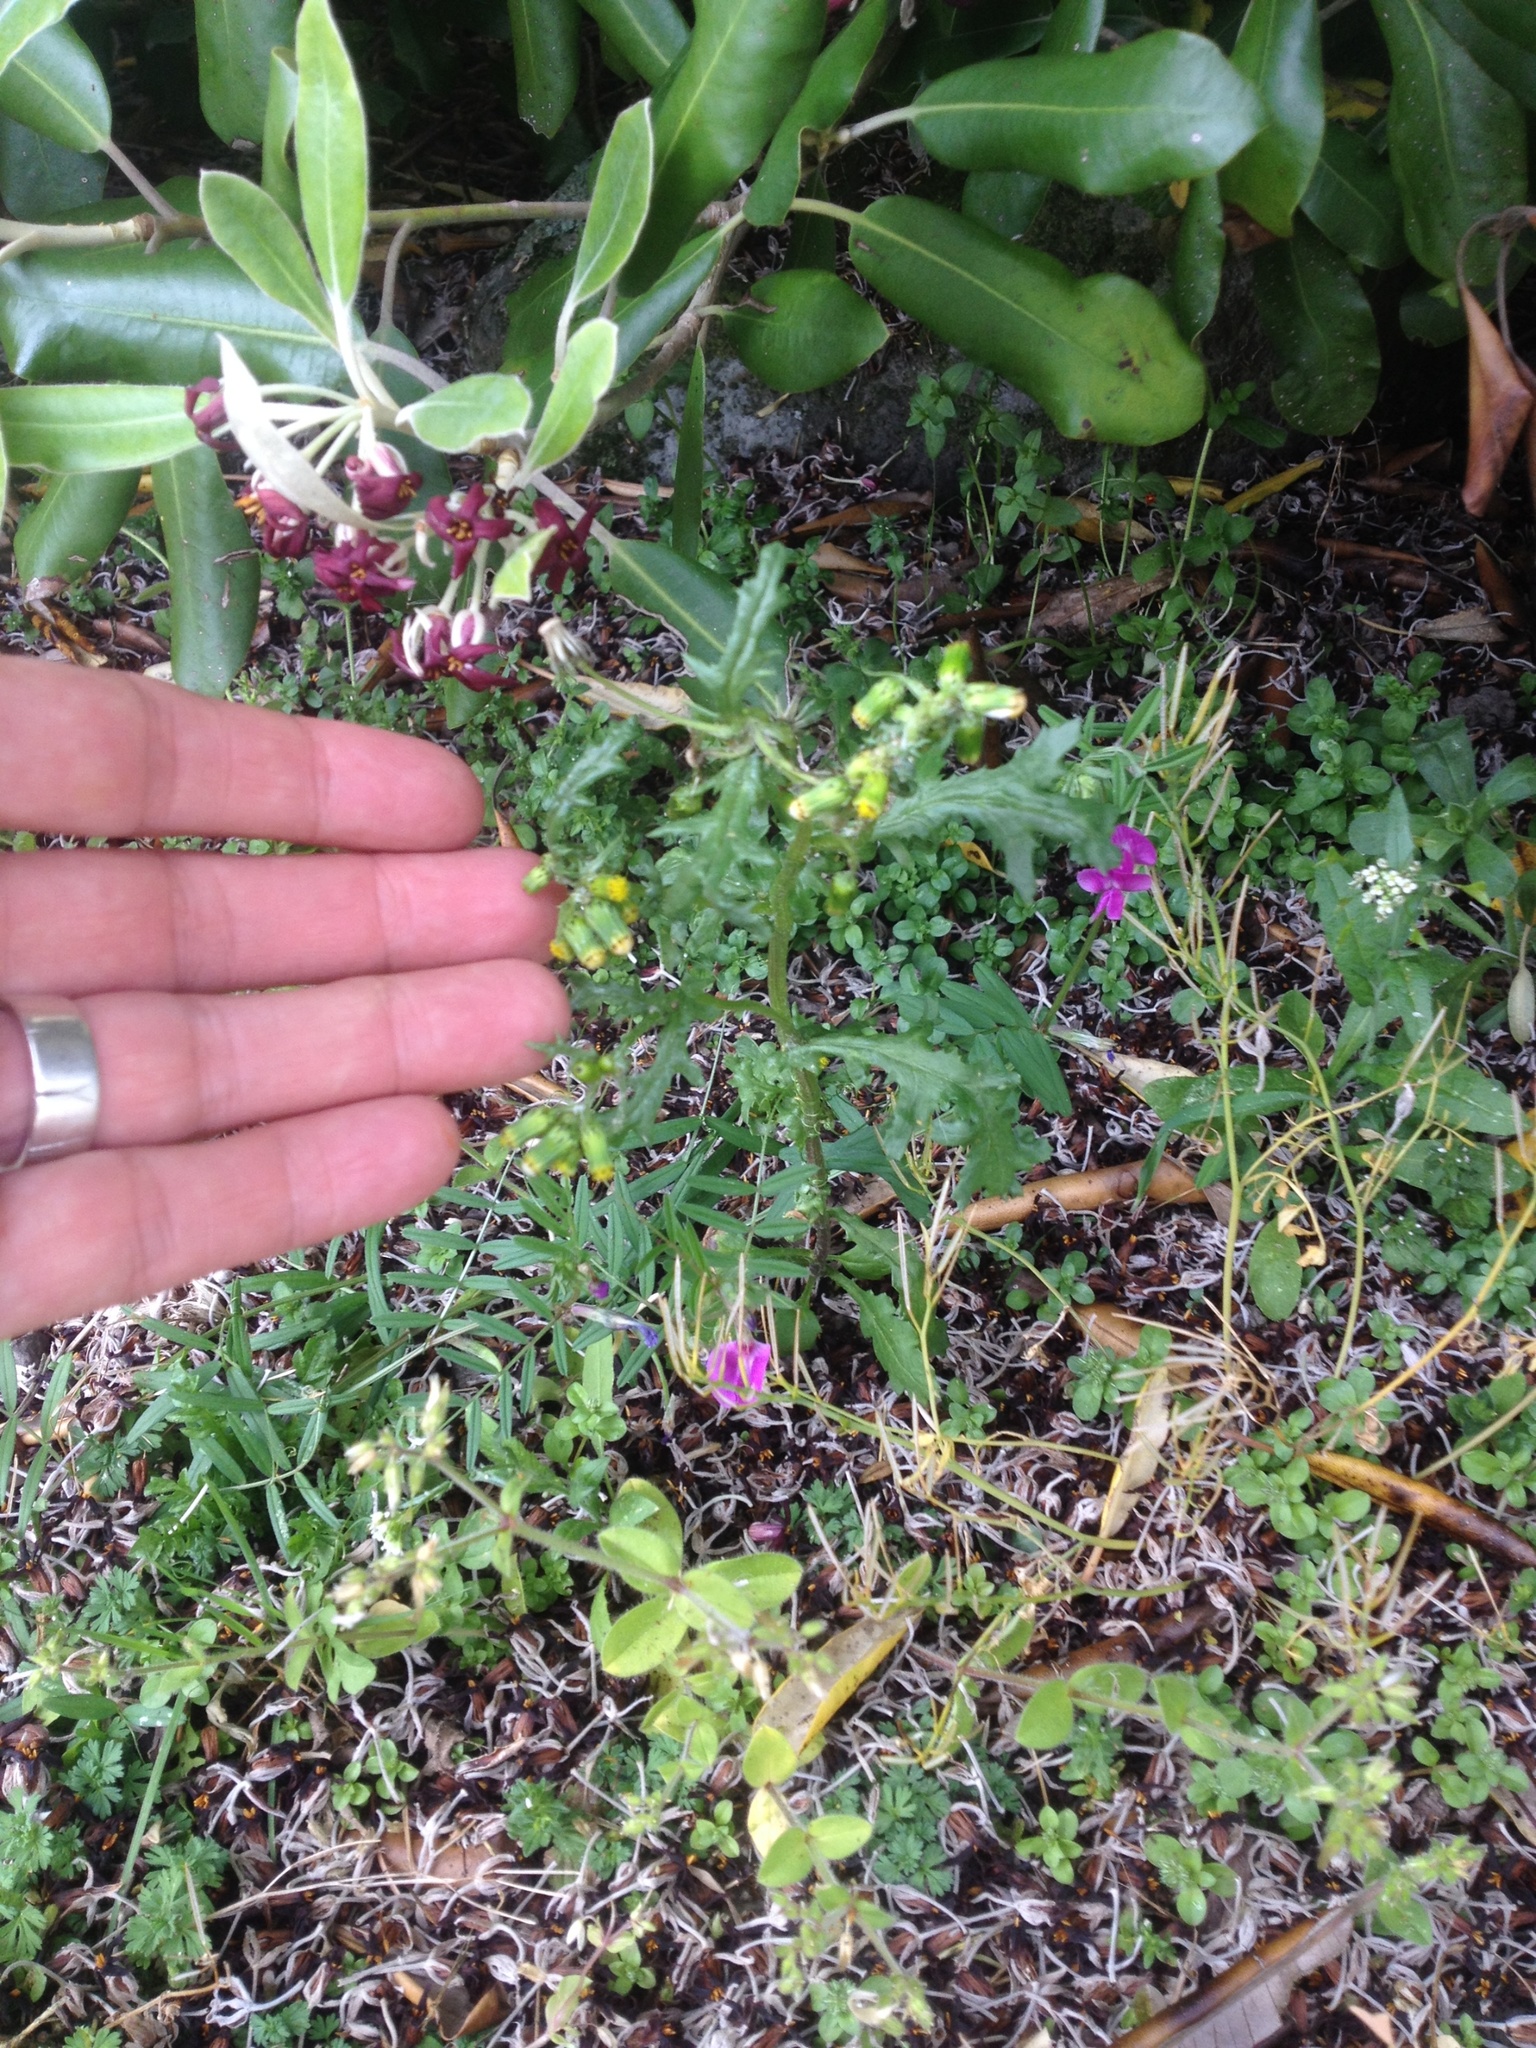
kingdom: Plantae
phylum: Tracheophyta
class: Magnoliopsida
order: Asterales
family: Asteraceae
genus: Senecio
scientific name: Senecio vulgaris
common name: Old-man-in-the-spring
